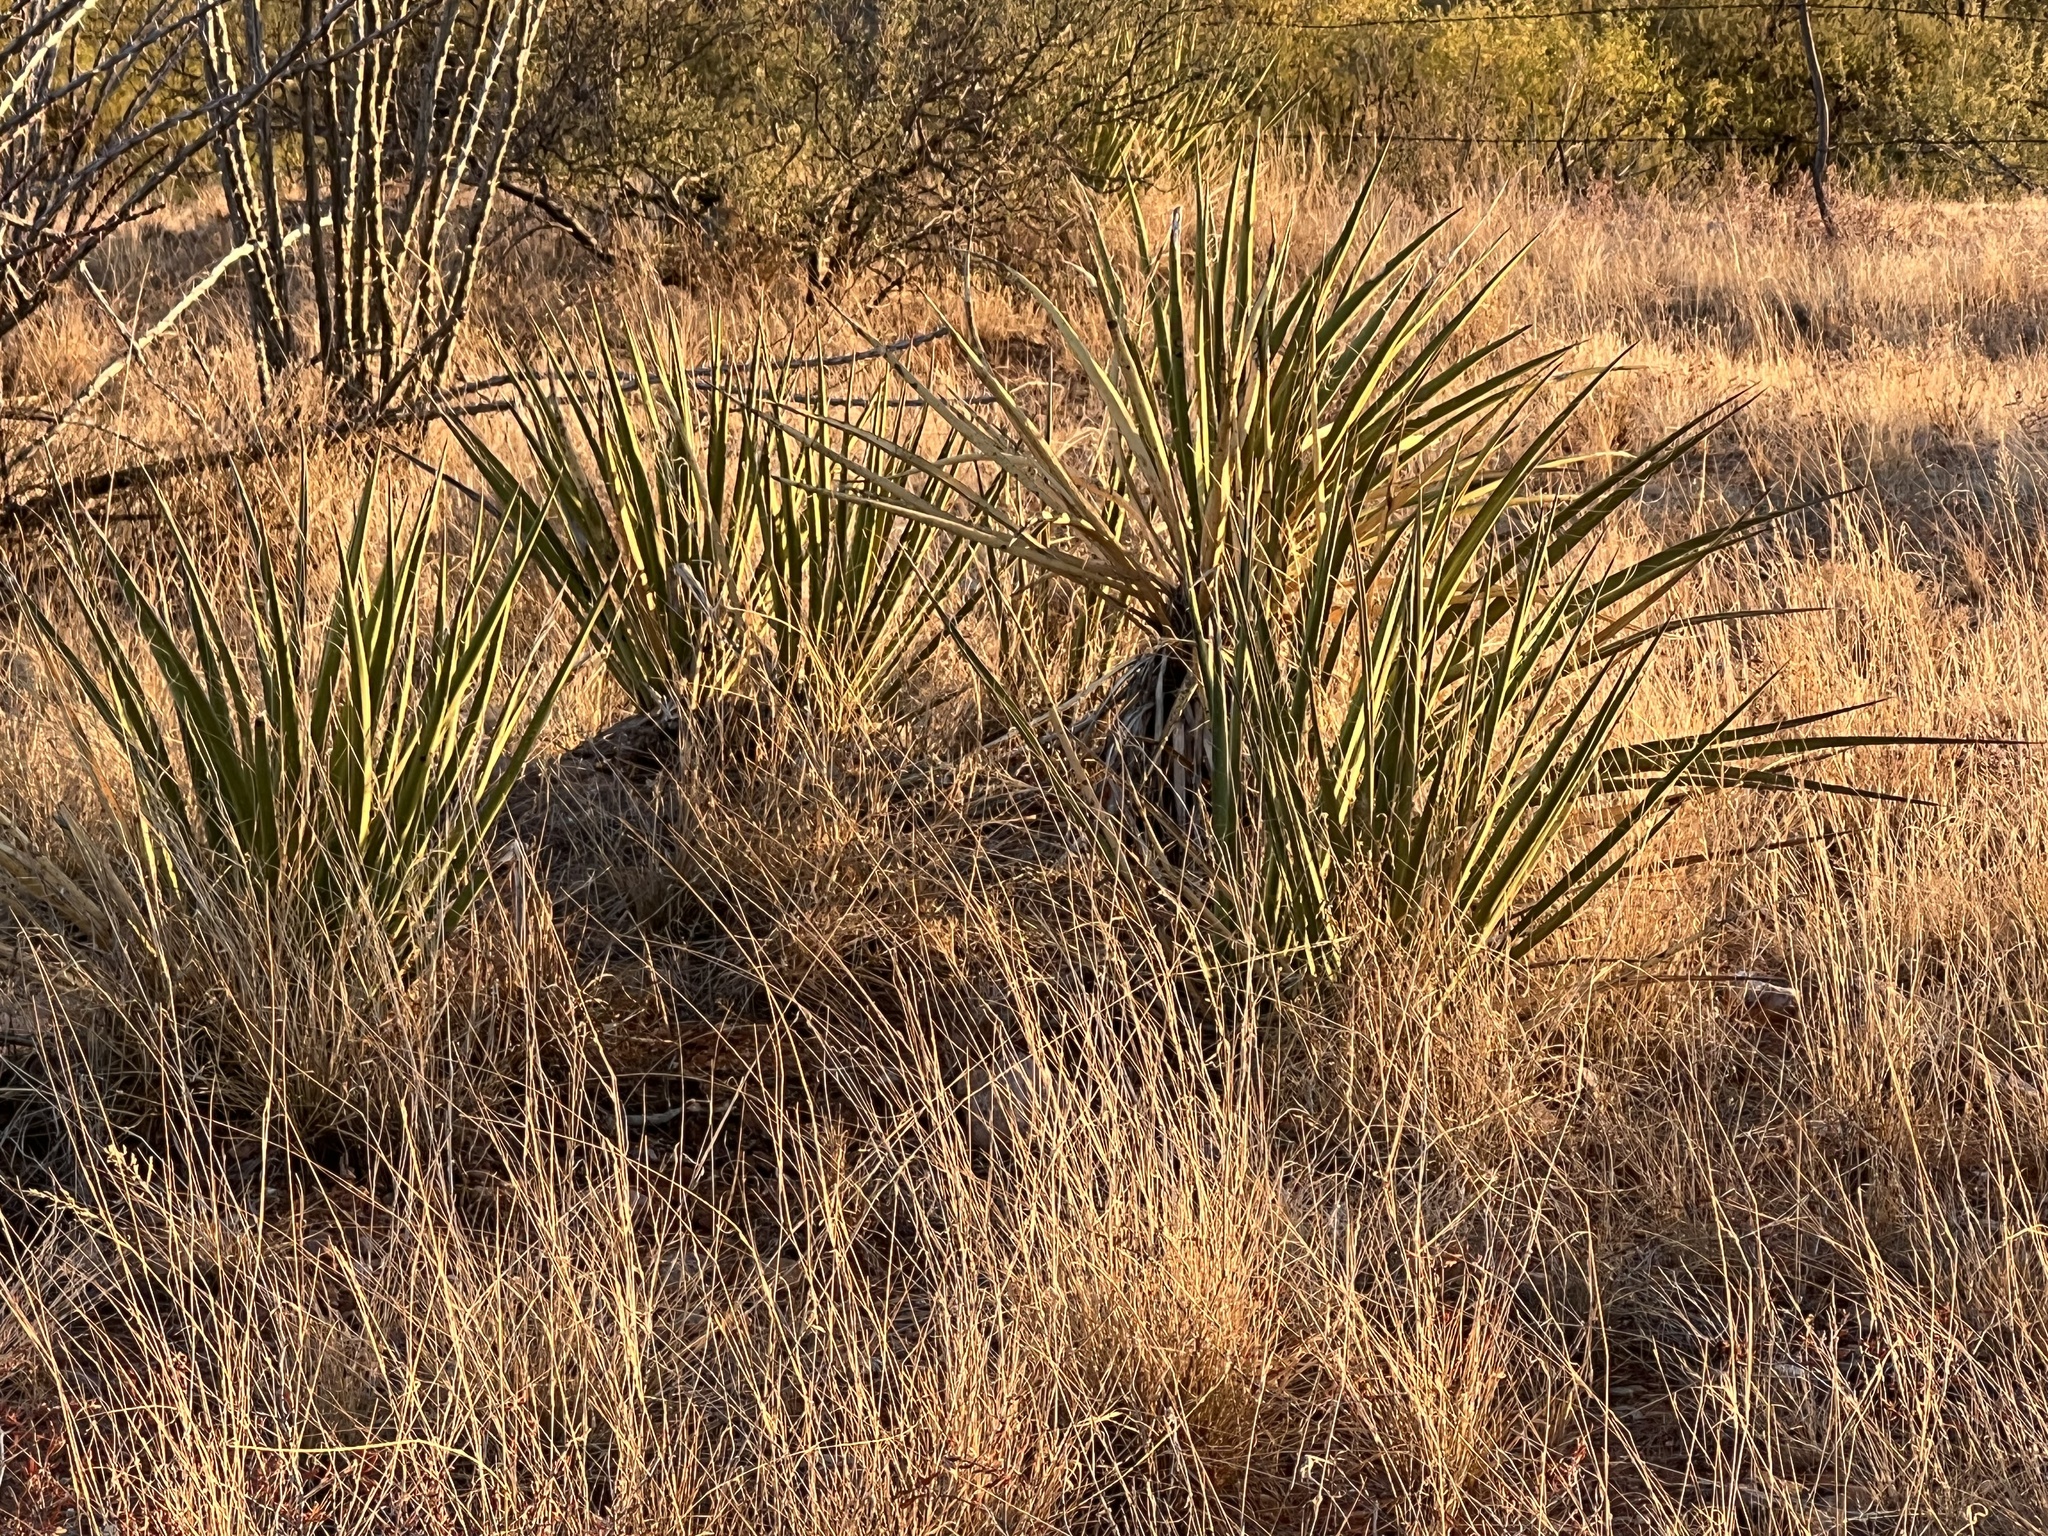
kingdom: Plantae
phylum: Tracheophyta
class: Liliopsida
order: Asparagales
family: Asparagaceae
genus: Yucca
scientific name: Yucca baccata
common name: Banana yucca
